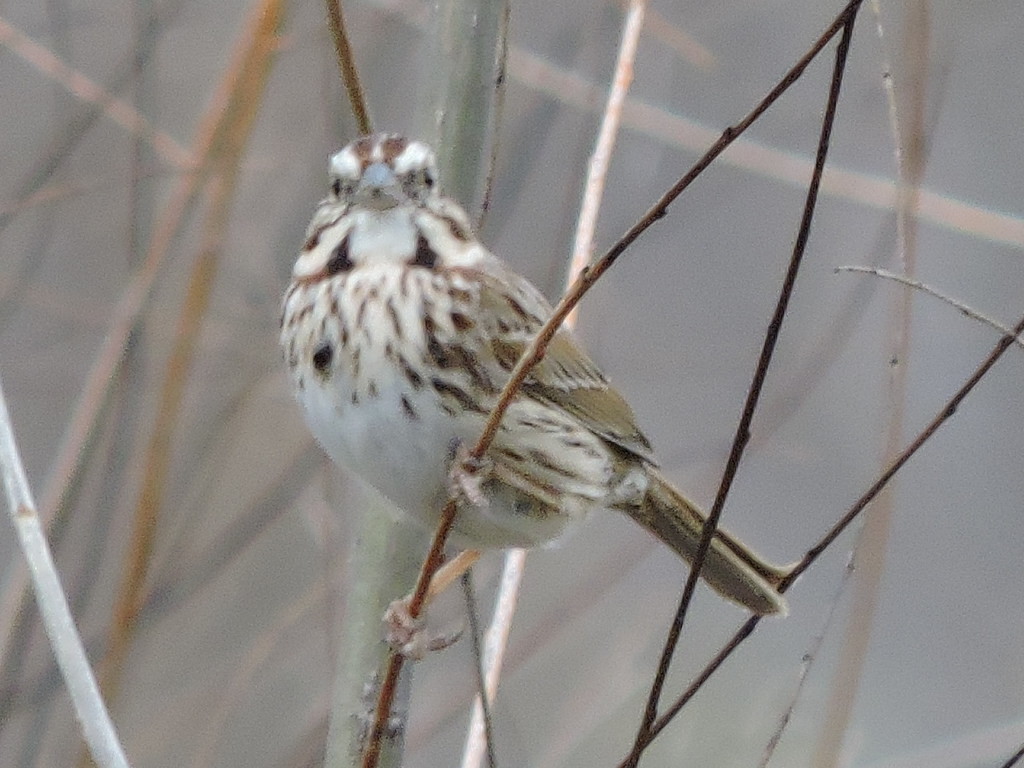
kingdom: Animalia
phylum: Chordata
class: Aves
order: Passeriformes
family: Passerellidae
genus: Melospiza
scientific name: Melospiza melodia
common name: Song sparrow
